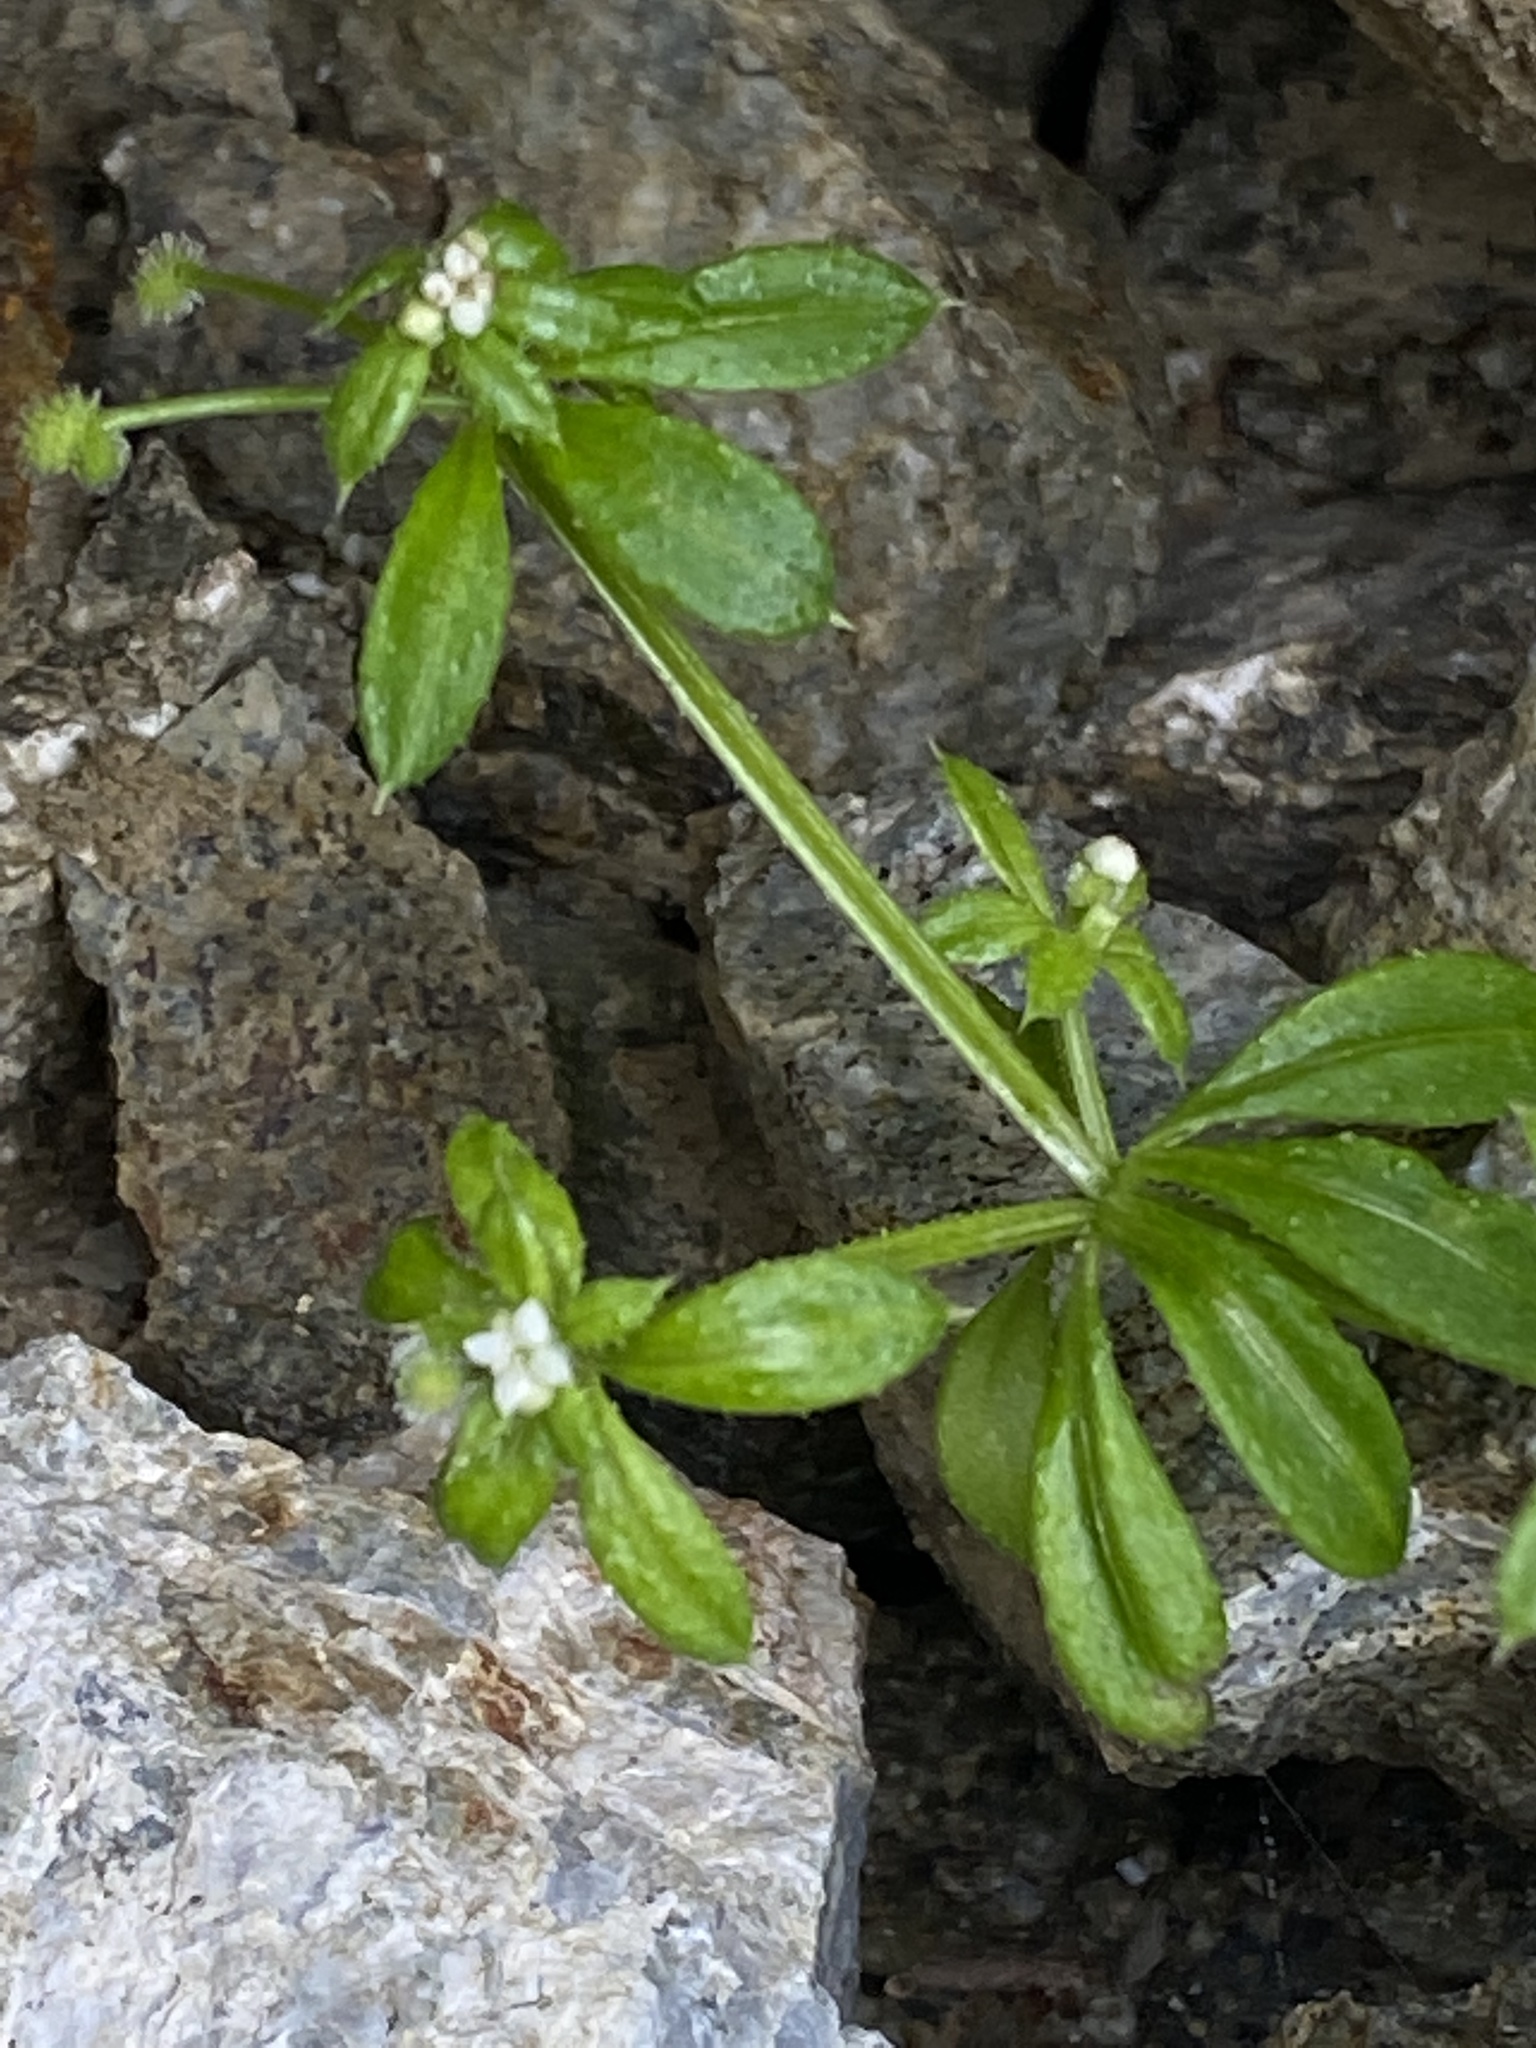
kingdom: Plantae
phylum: Tracheophyta
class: Magnoliopsida
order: Gentianales
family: Rubiaceae
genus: Galium
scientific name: Galium aparine
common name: Cleavers
